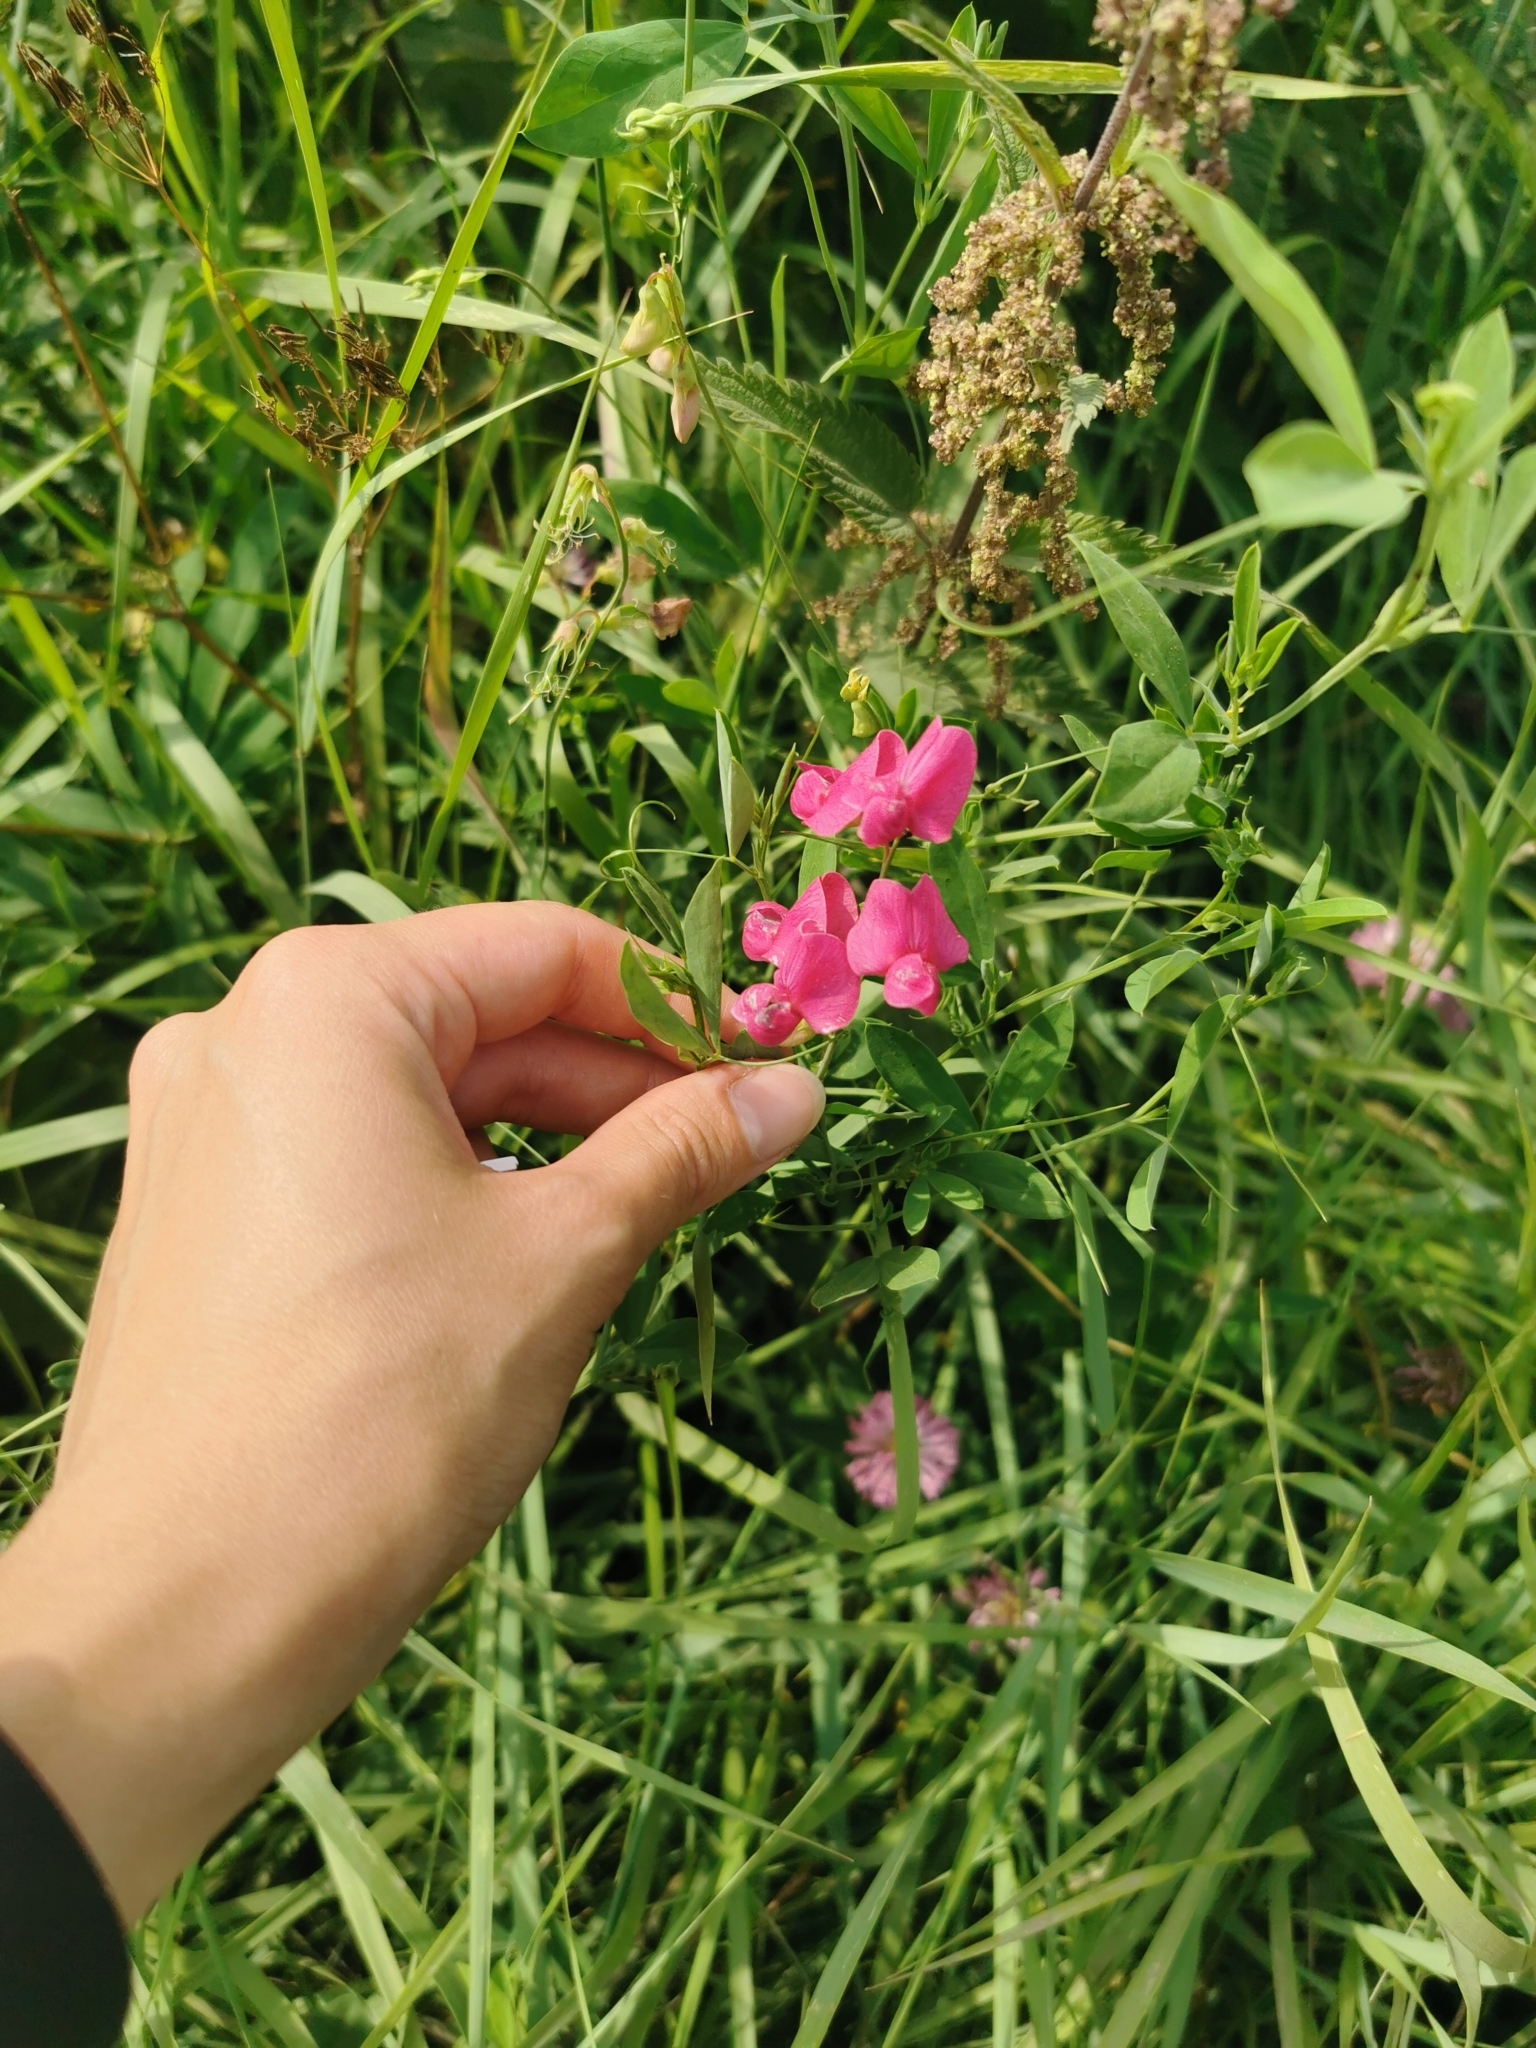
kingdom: Plantae
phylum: Tracheophyta
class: Magnoliopsida
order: Fabales
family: Fabaceae
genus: Lathyrus
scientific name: Lathyrus tuberosus
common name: Tuberous pea
